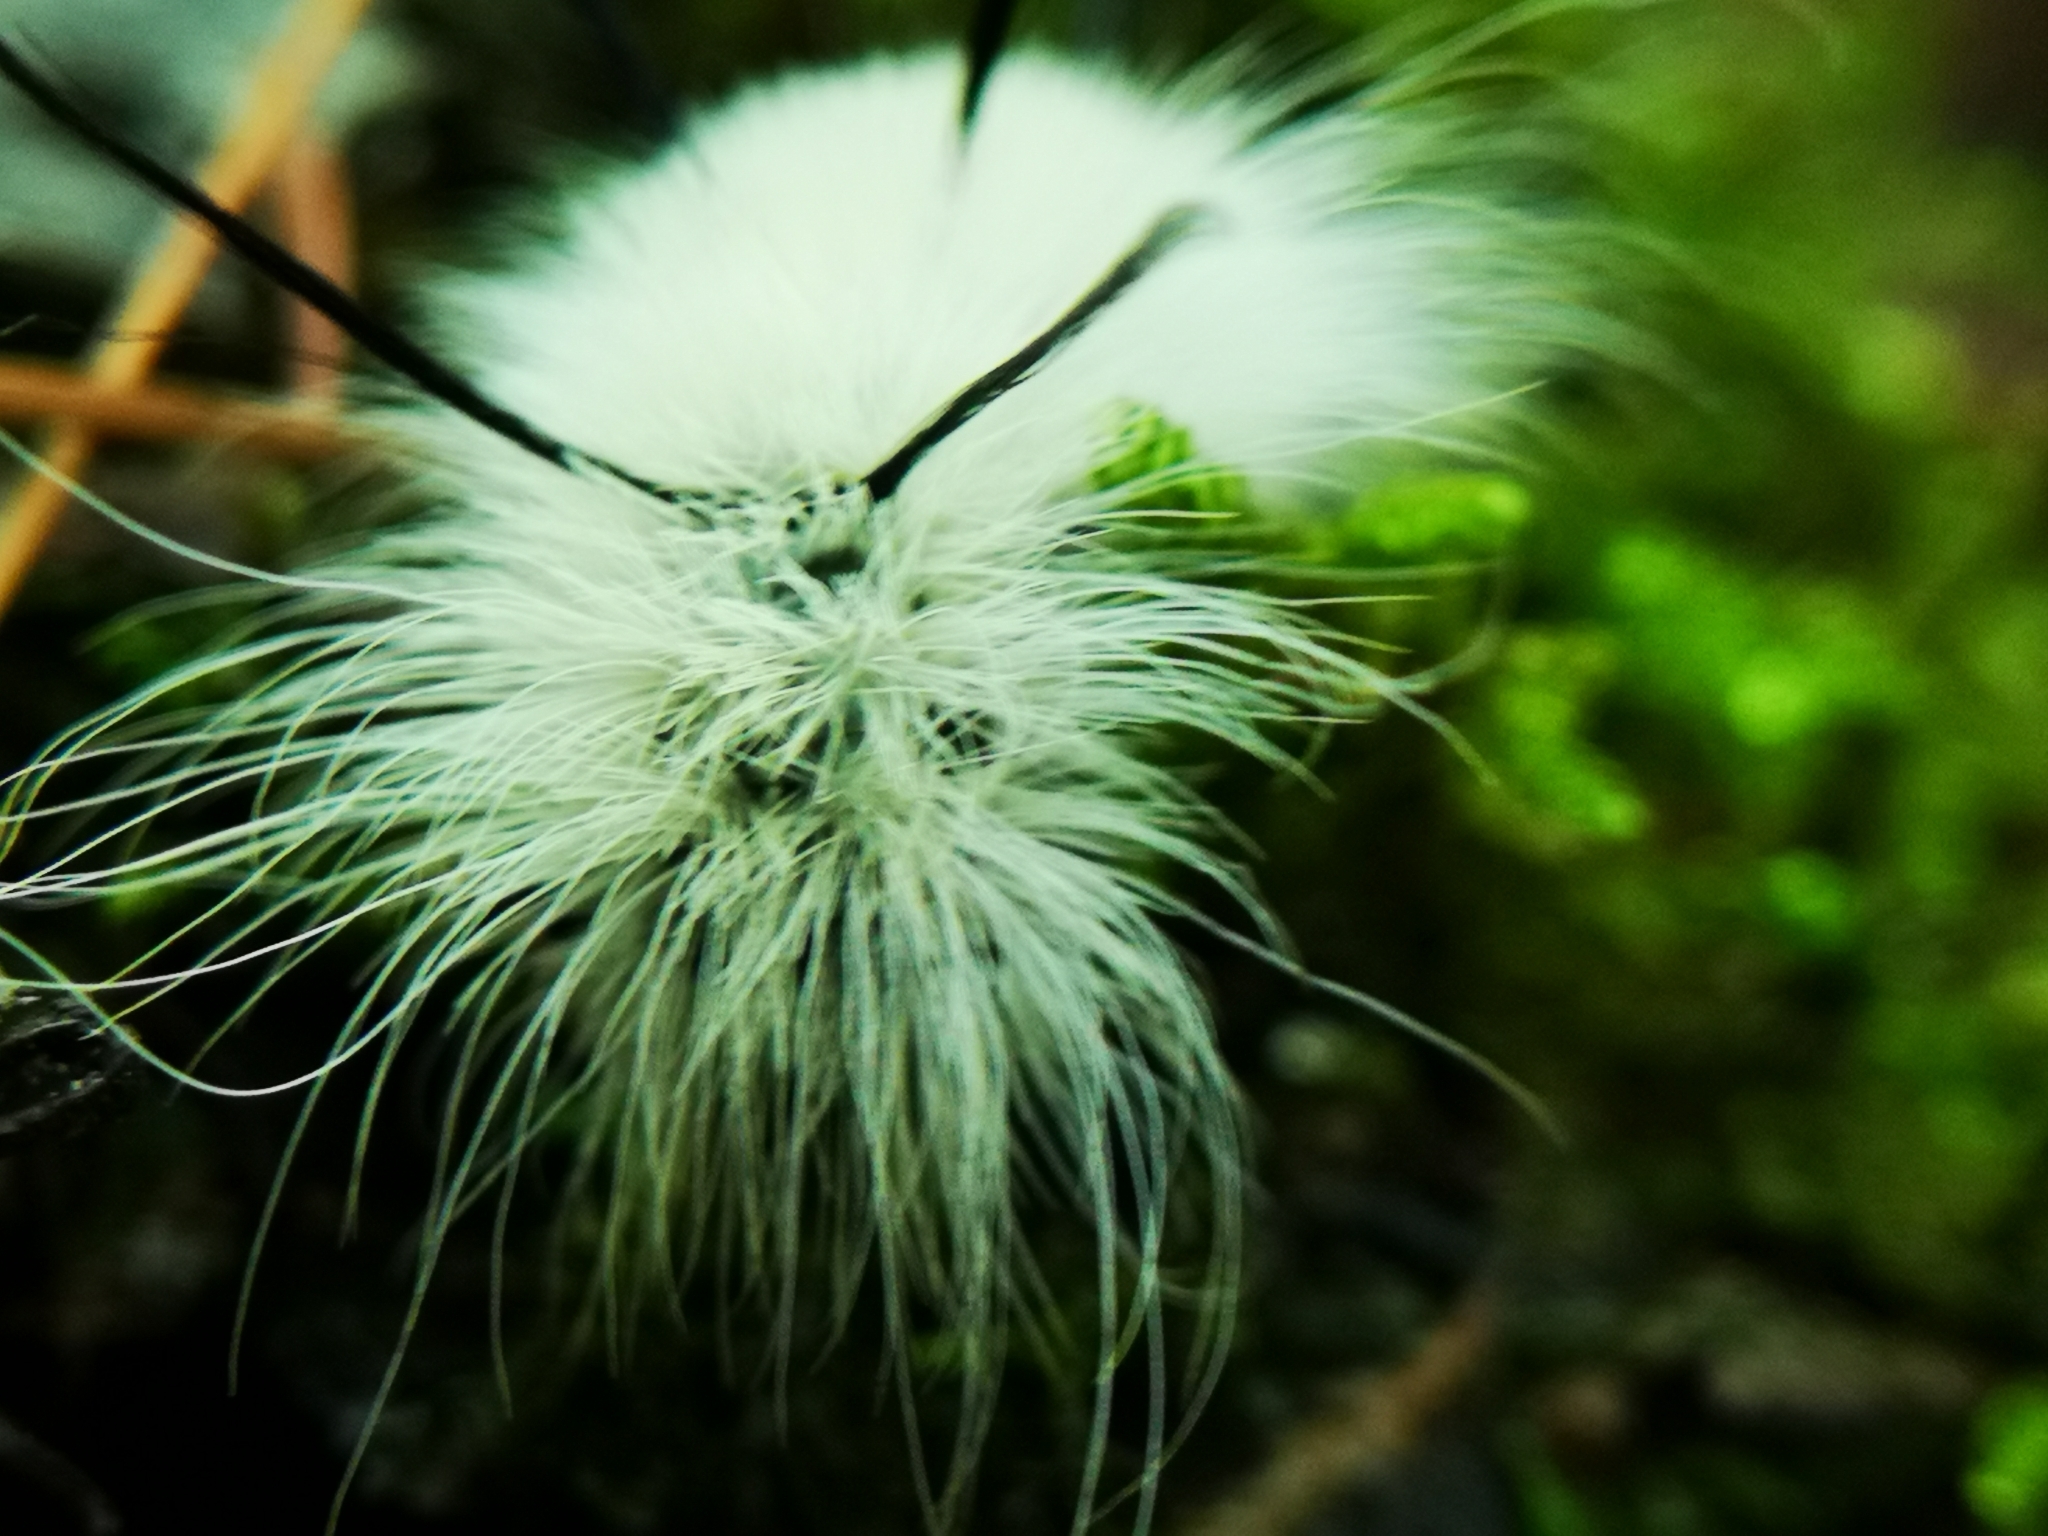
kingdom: Animalia
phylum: Arthropoda
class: Insecta
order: Lepidoptera
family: Noctuidae
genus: Acronicta
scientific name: Acronicta americana
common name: American dagger
